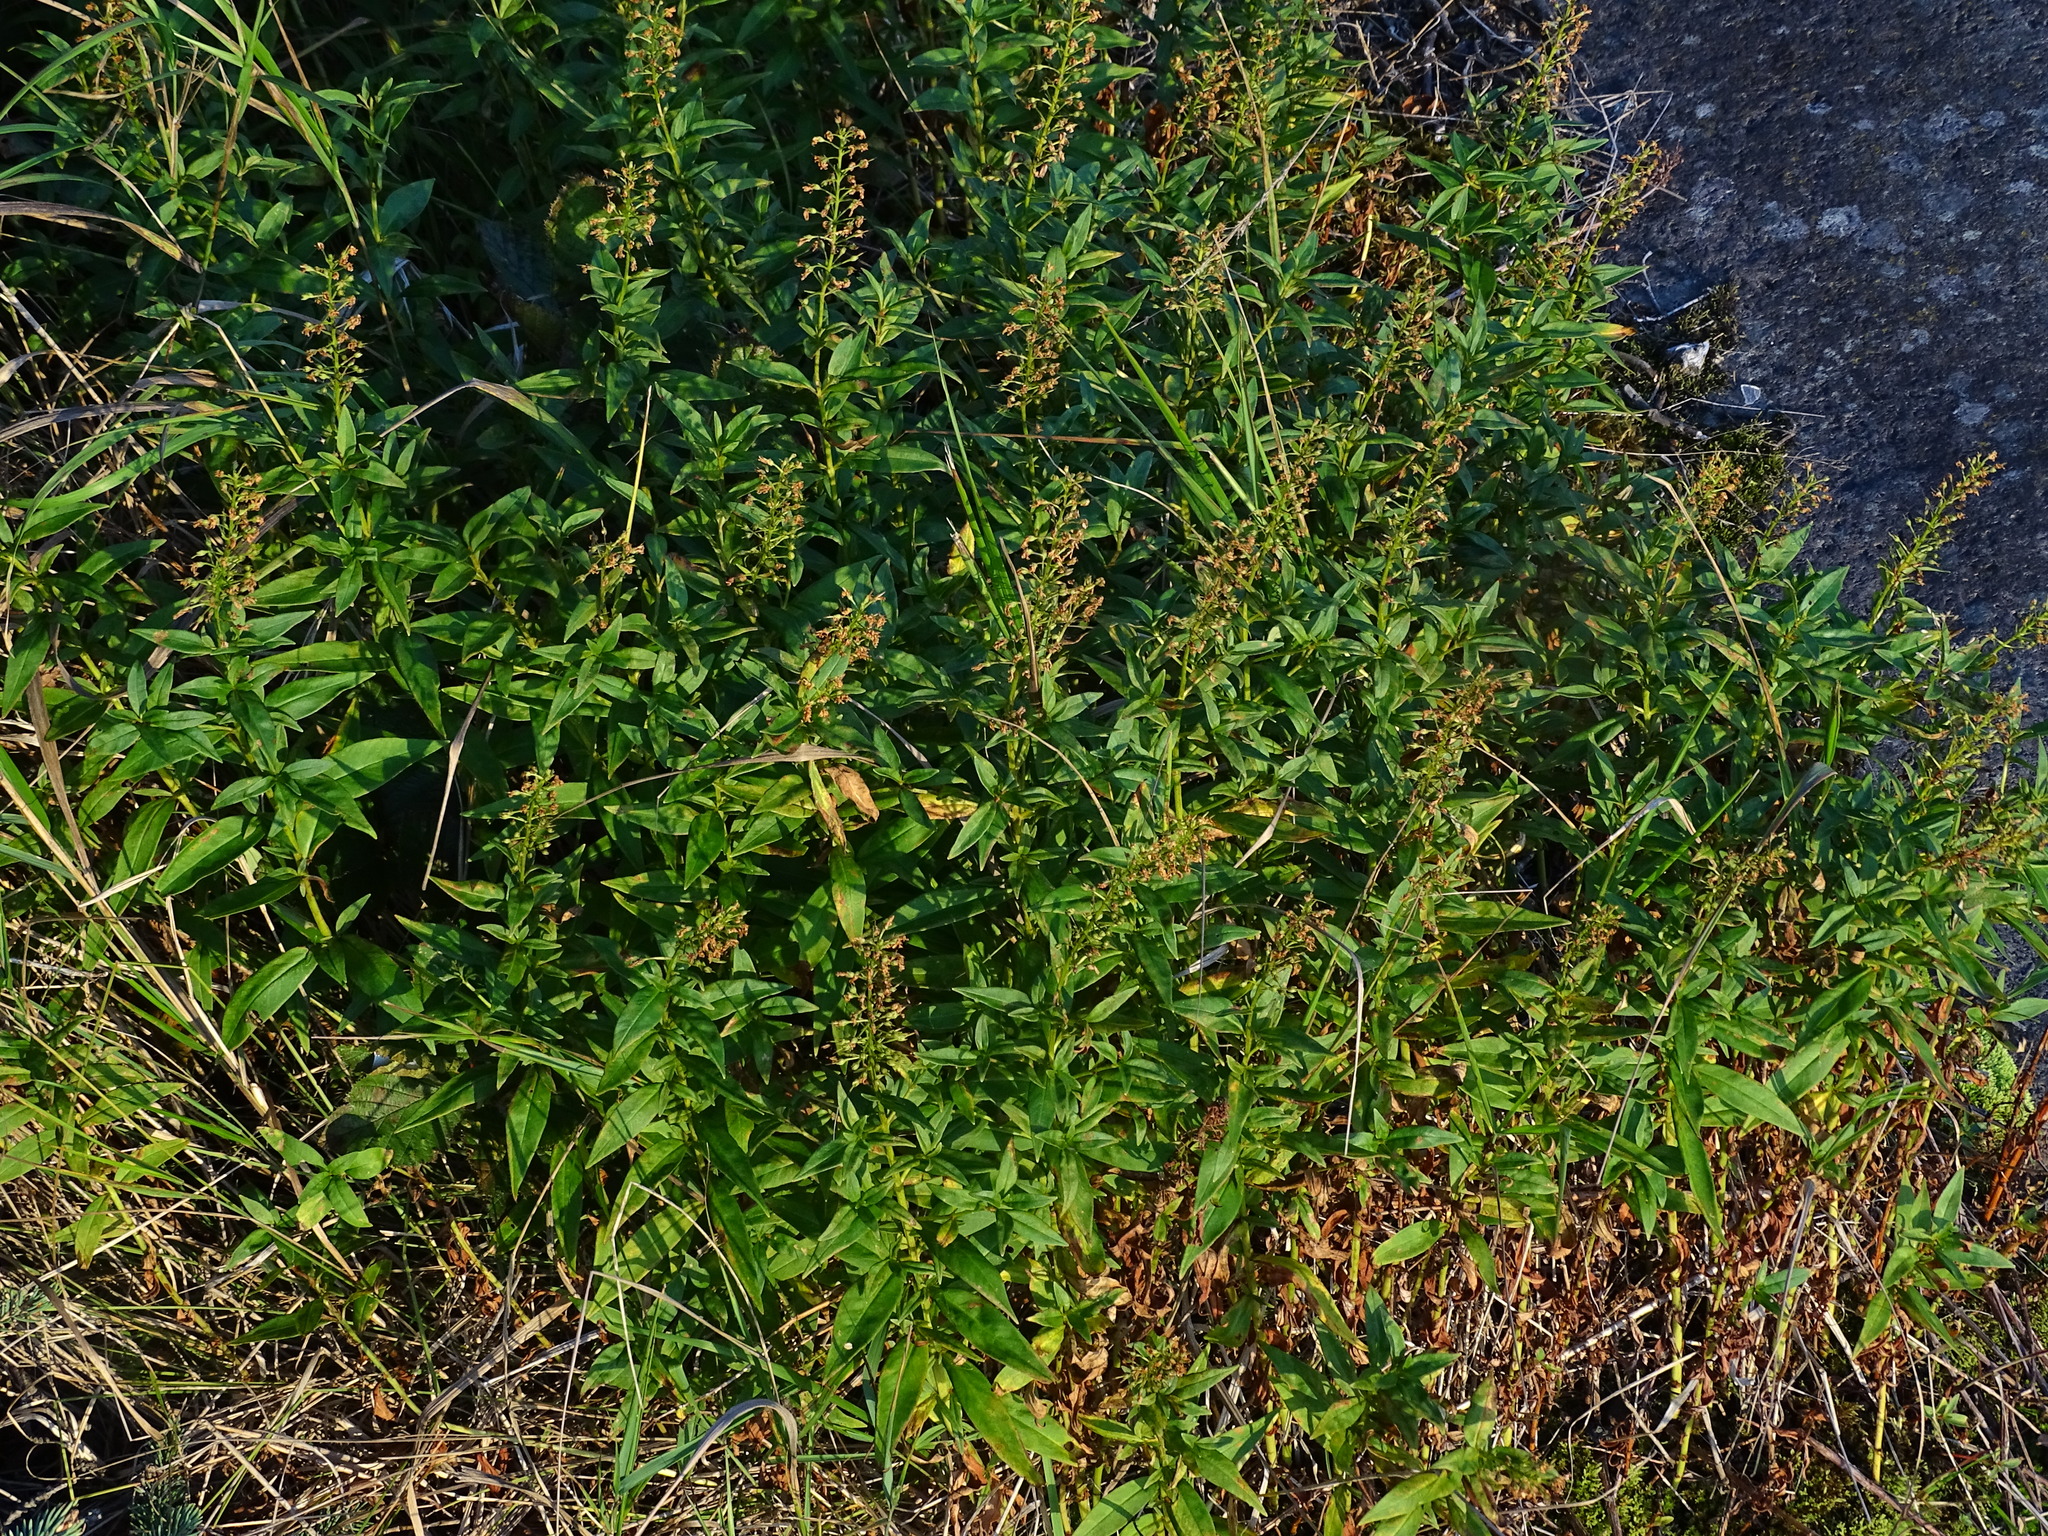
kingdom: Plantae
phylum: Tracheophyta
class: Magnoliopsida
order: Ericales
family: Primulaceae
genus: Lysimachia
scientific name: Lysimachia terrestris
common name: Lake loosestrife
